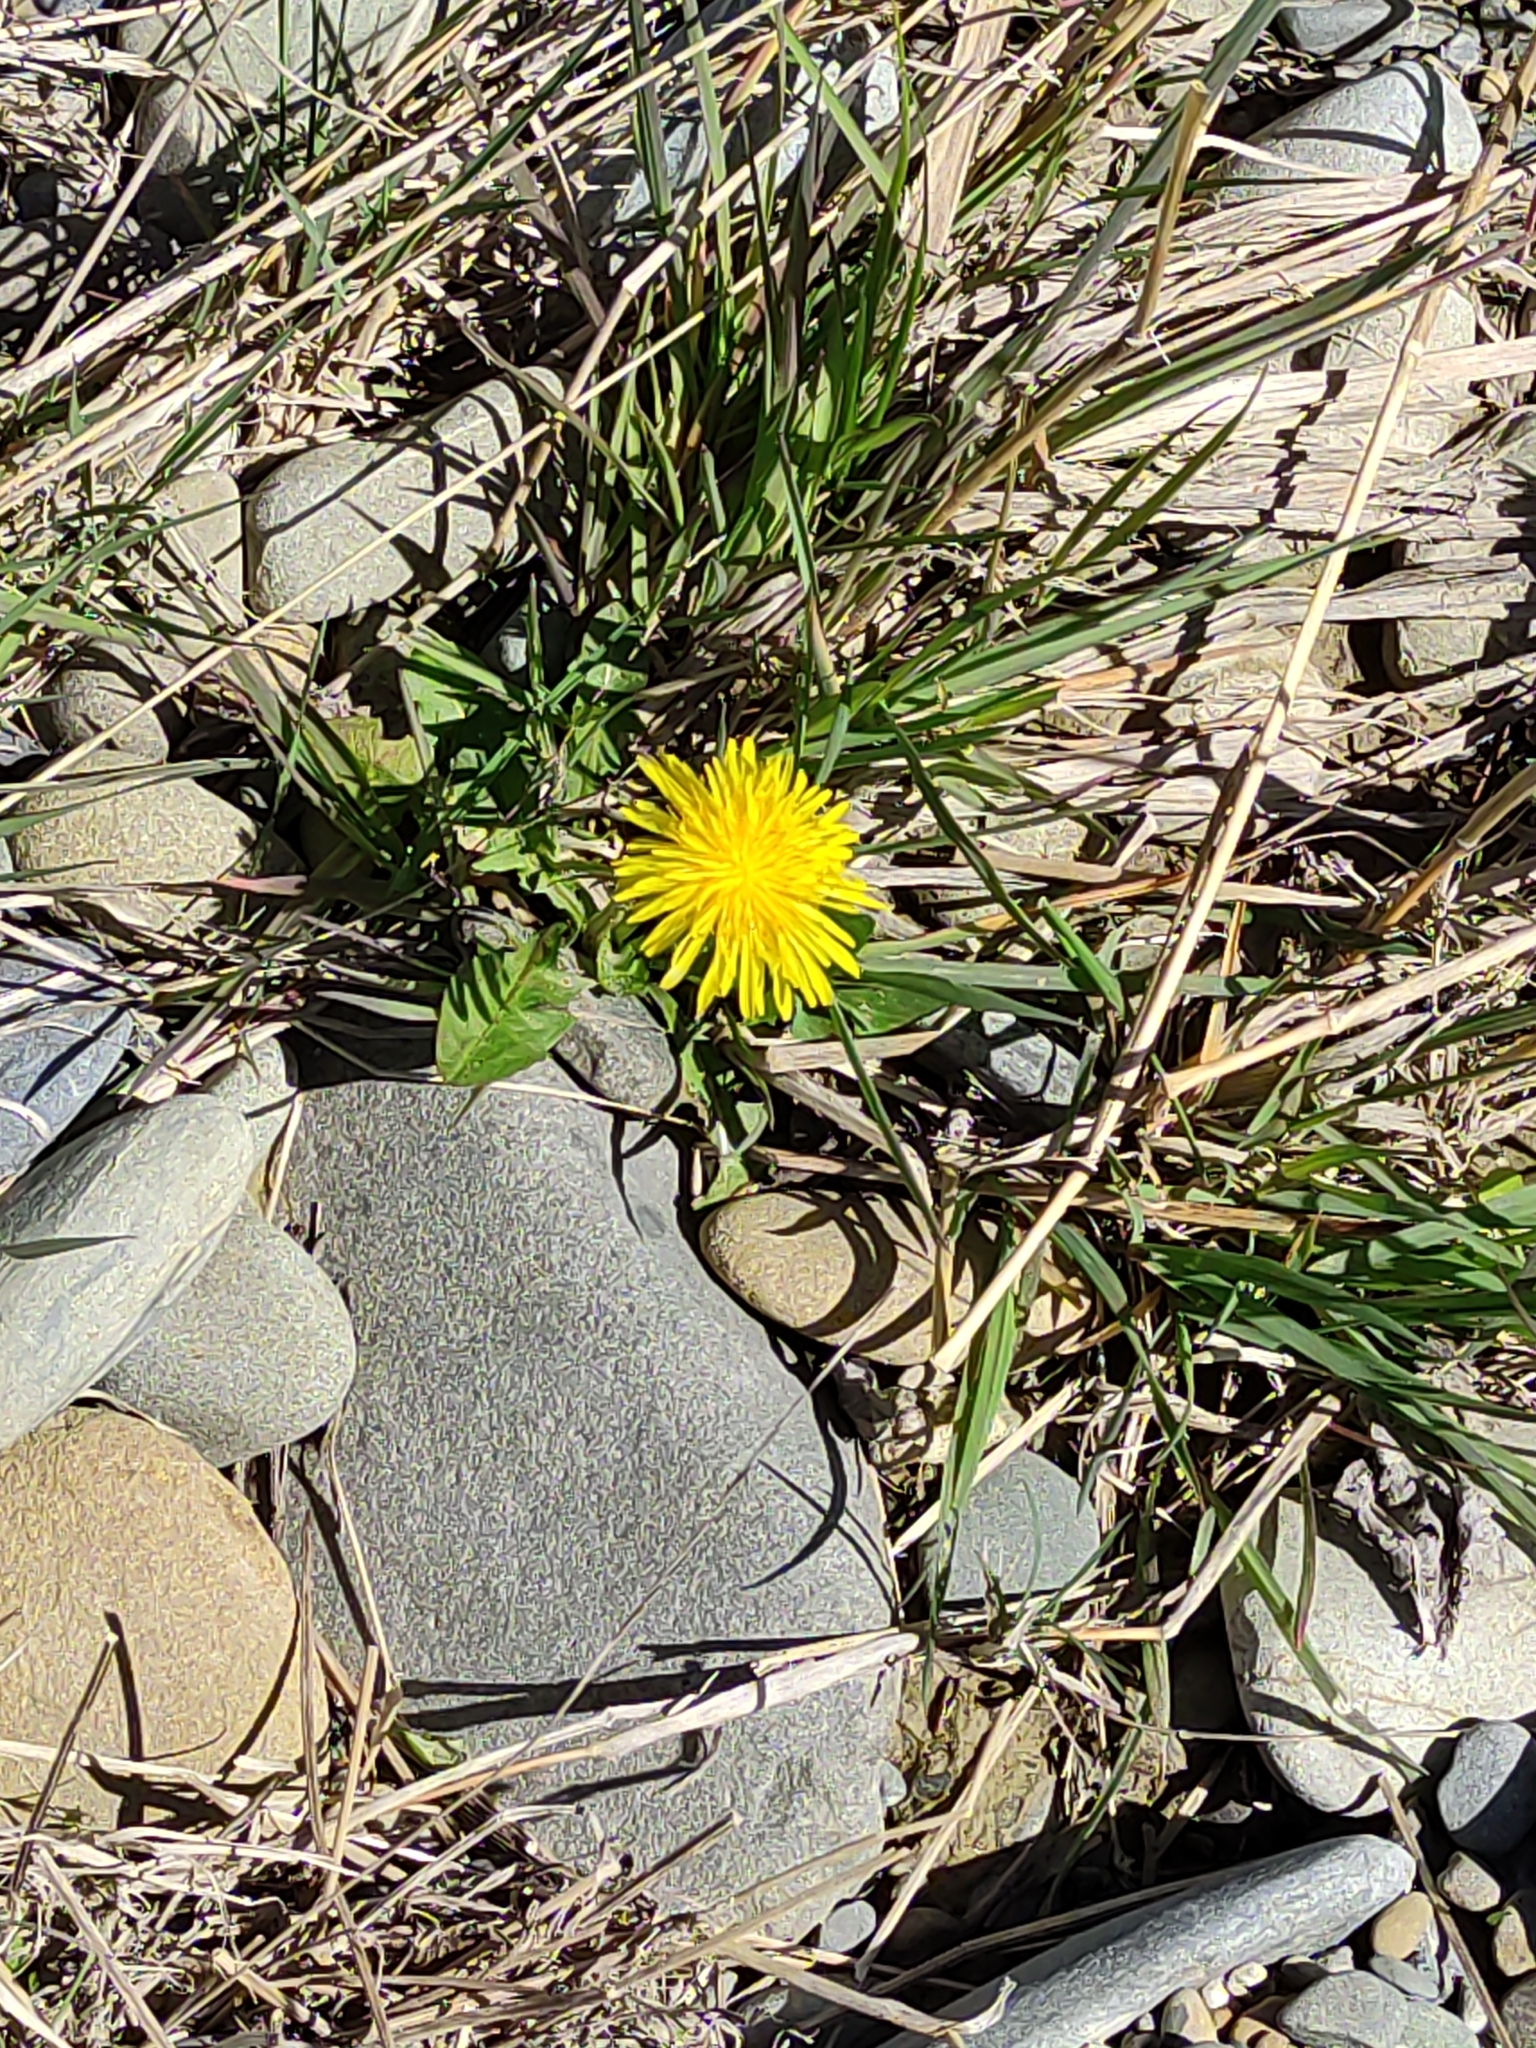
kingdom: Plantae
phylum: Tracheophyta
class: Magnoliopsida
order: Asterales
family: Asteraceae
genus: Taraxacum
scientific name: Taraxacum officinale
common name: Common dandelion
